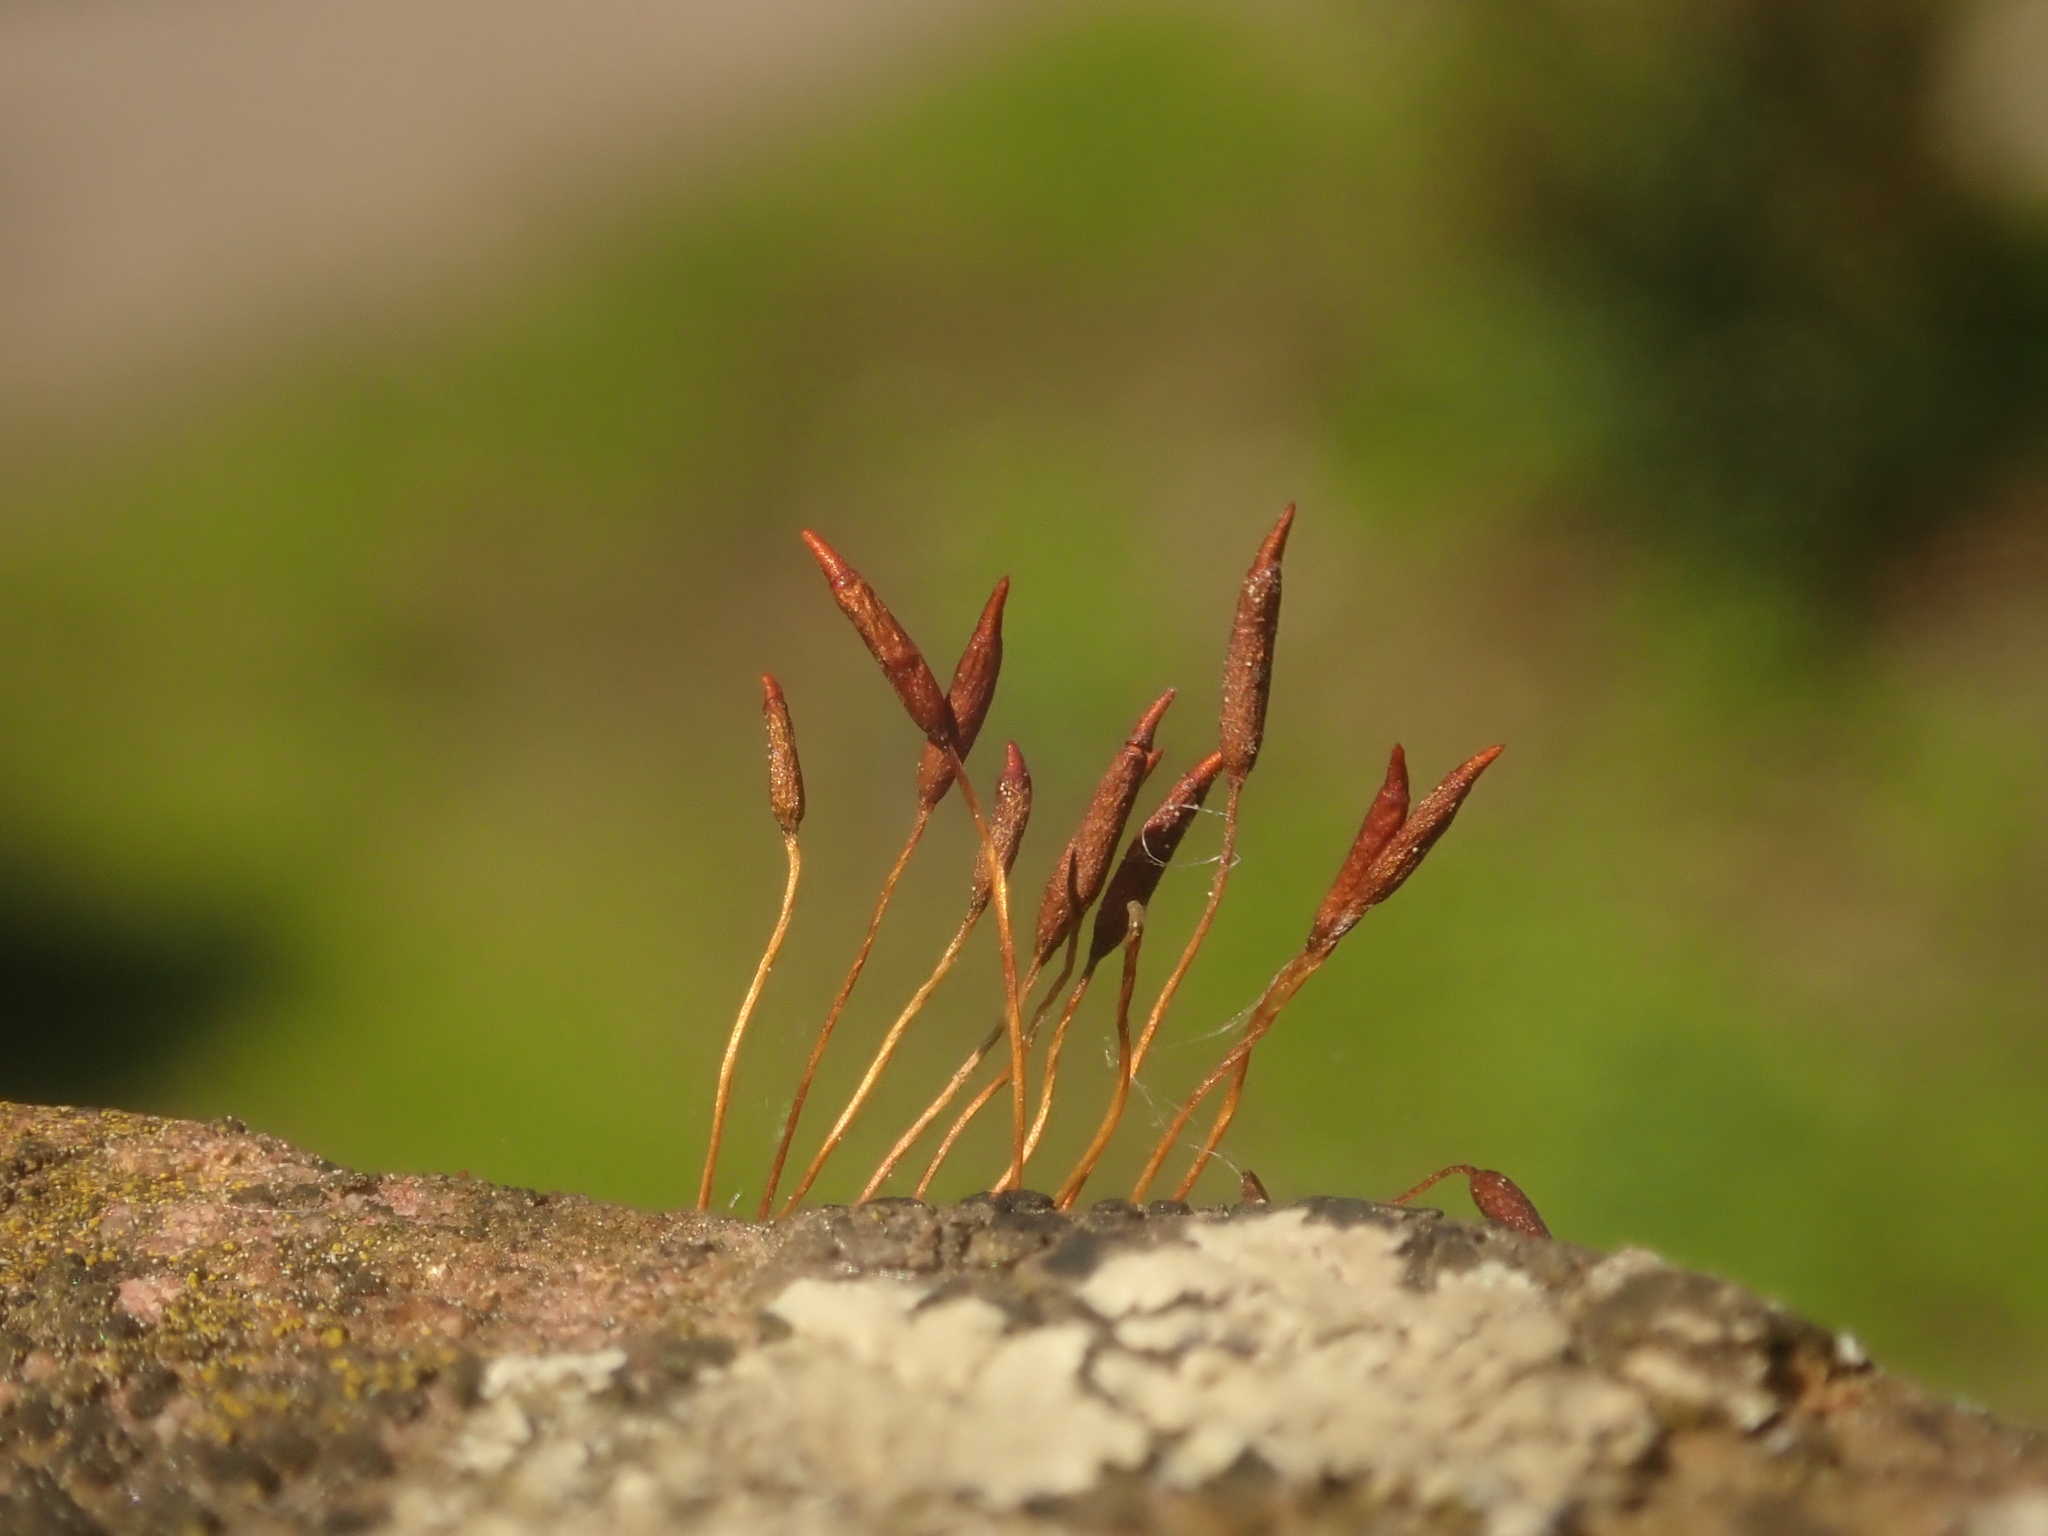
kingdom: Plantae
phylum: Bryophyta
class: Bryopsida
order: Pottiales
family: Pottiaceae
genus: Tortula
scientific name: Tortula muralis
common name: Wall screw-moss
